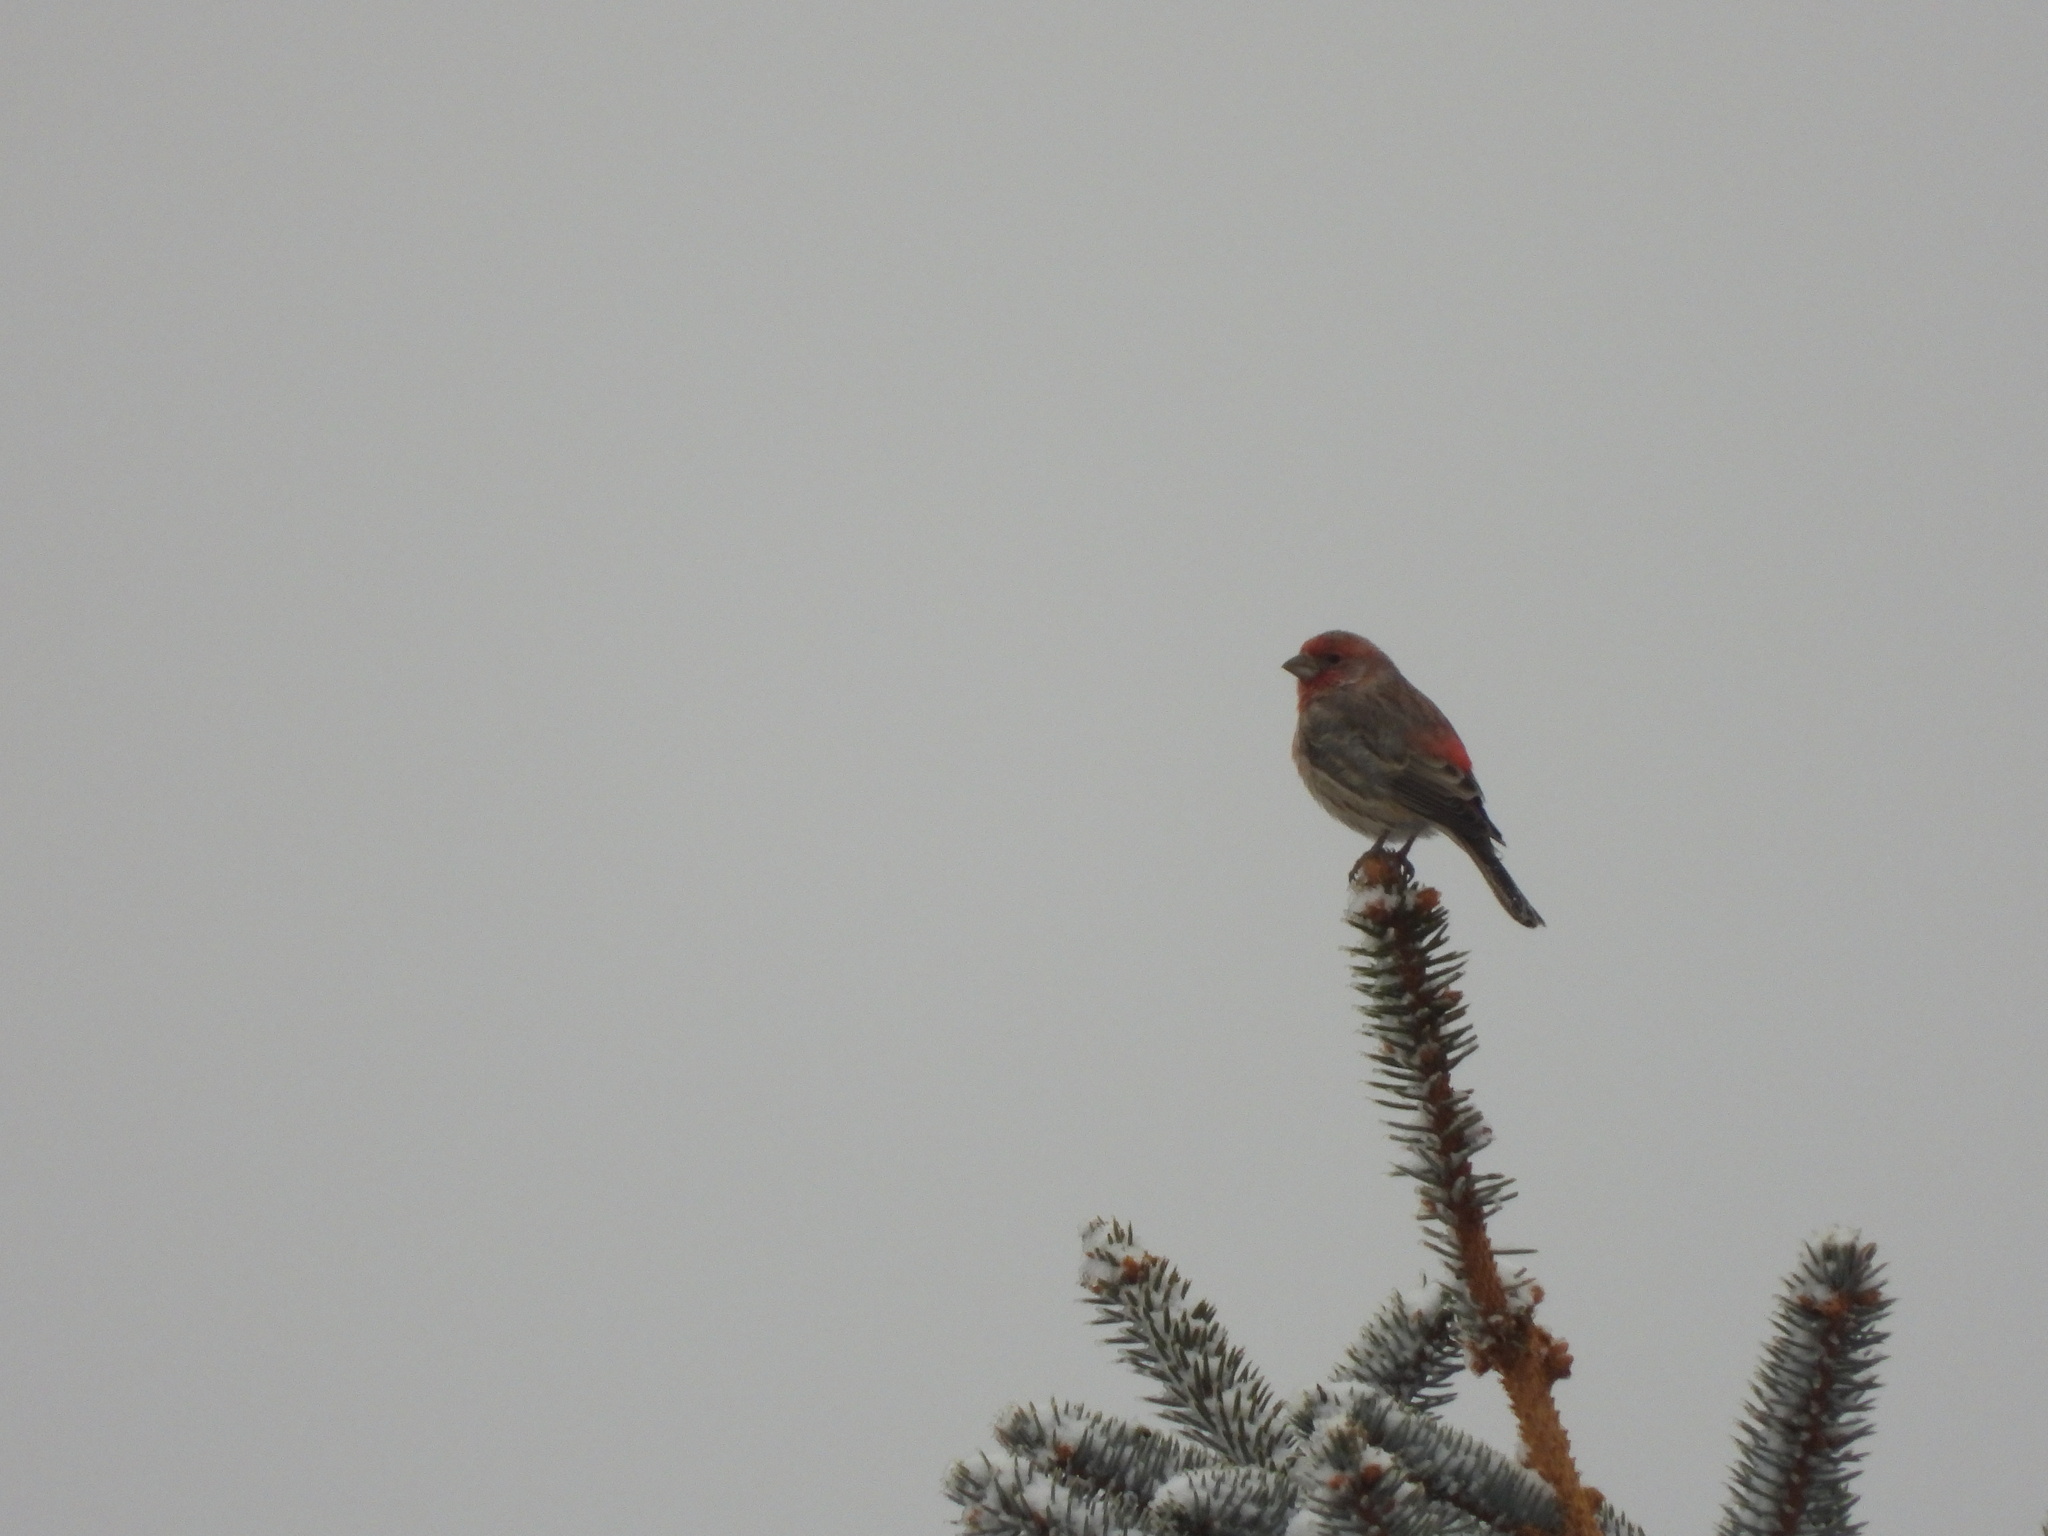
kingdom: Animalia
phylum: Chordata
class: Aves
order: Passeriformes
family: Fringillidae
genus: Haemorhous
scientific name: Haemorhous mexicanus
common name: House finch
